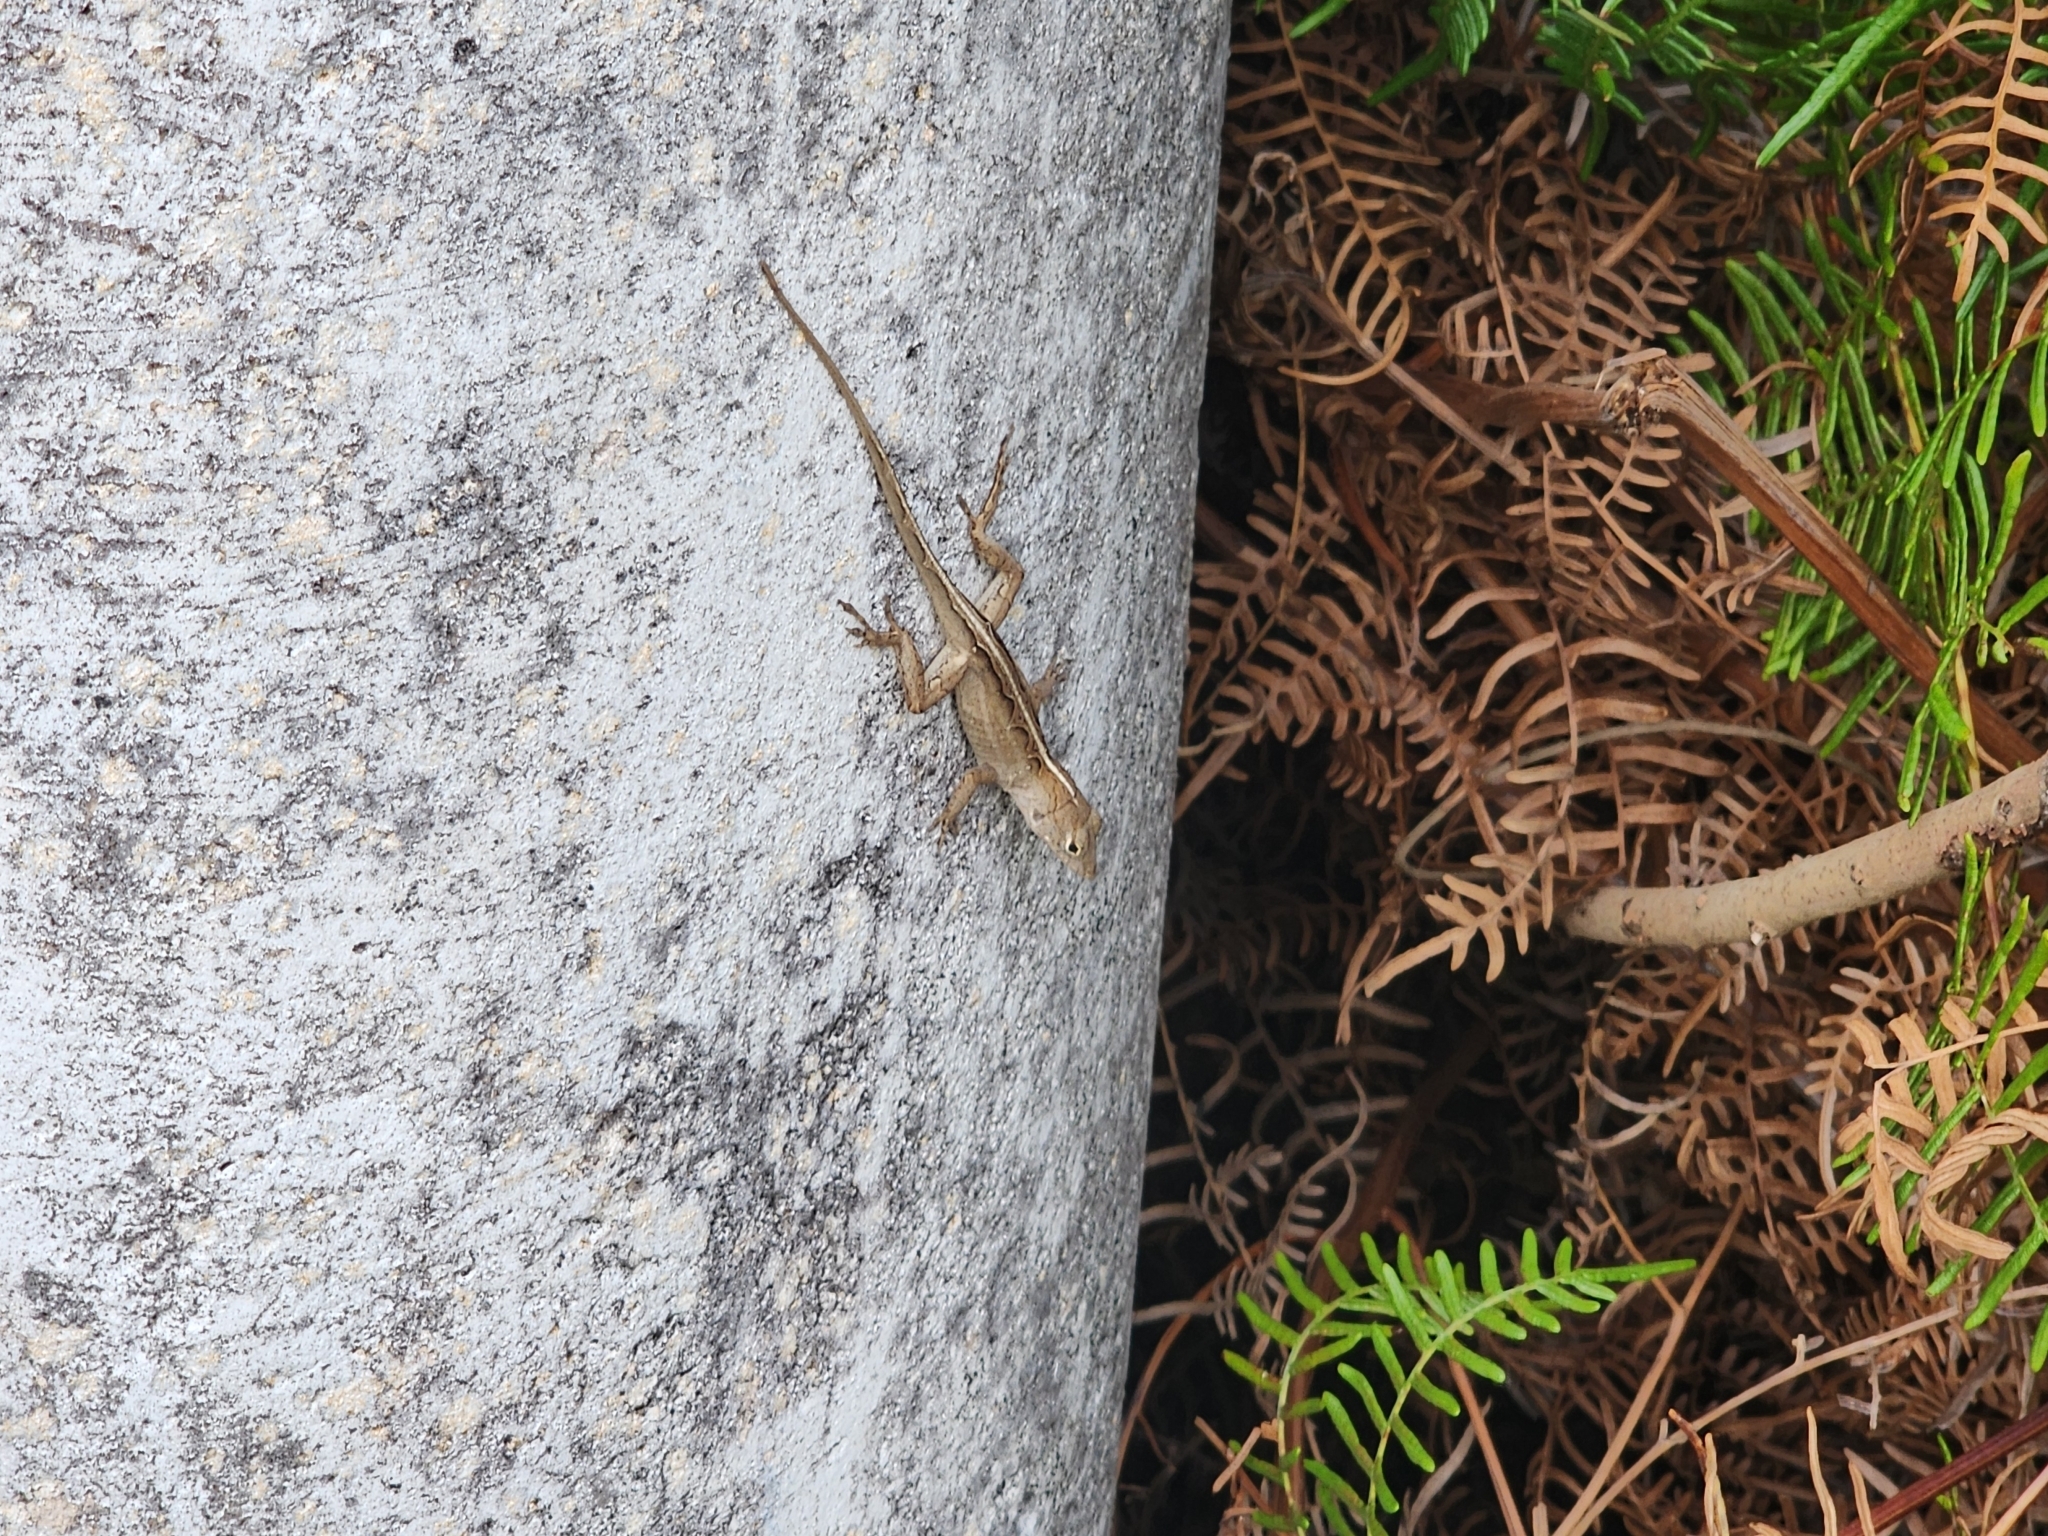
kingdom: Animalia
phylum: Chordata
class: Squamata
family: Dactyloidae
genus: Anolis
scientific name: Anolis sagrei
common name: Brown anole
